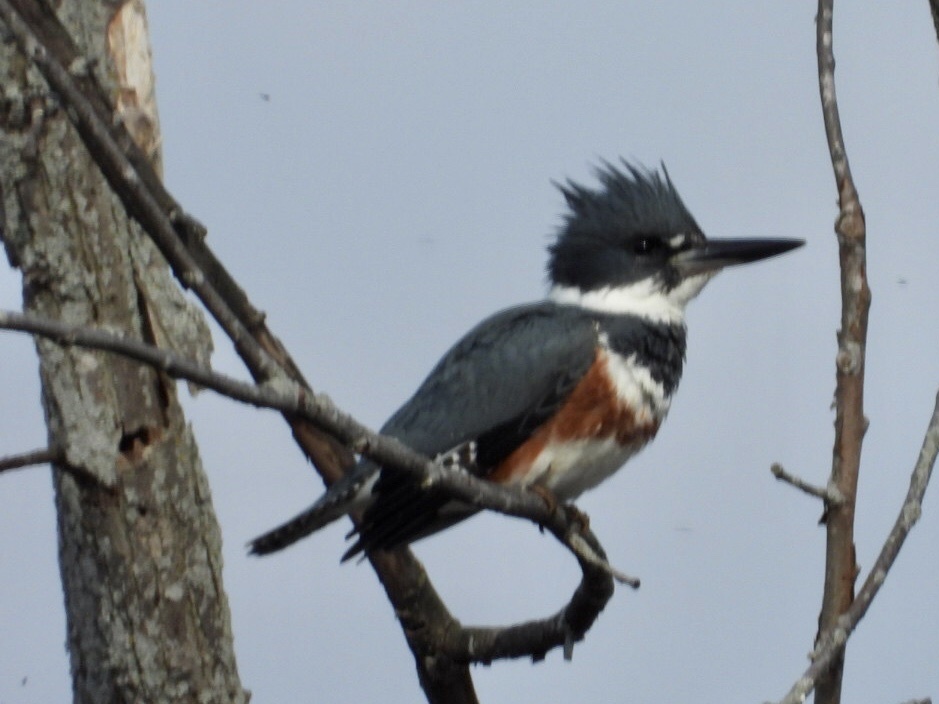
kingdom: Animalia
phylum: Chordata
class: Aves
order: Coraciiformes
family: Alcedinidae
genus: Megaceryle
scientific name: Megaceryle alcyon
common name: Belted kingfisher
